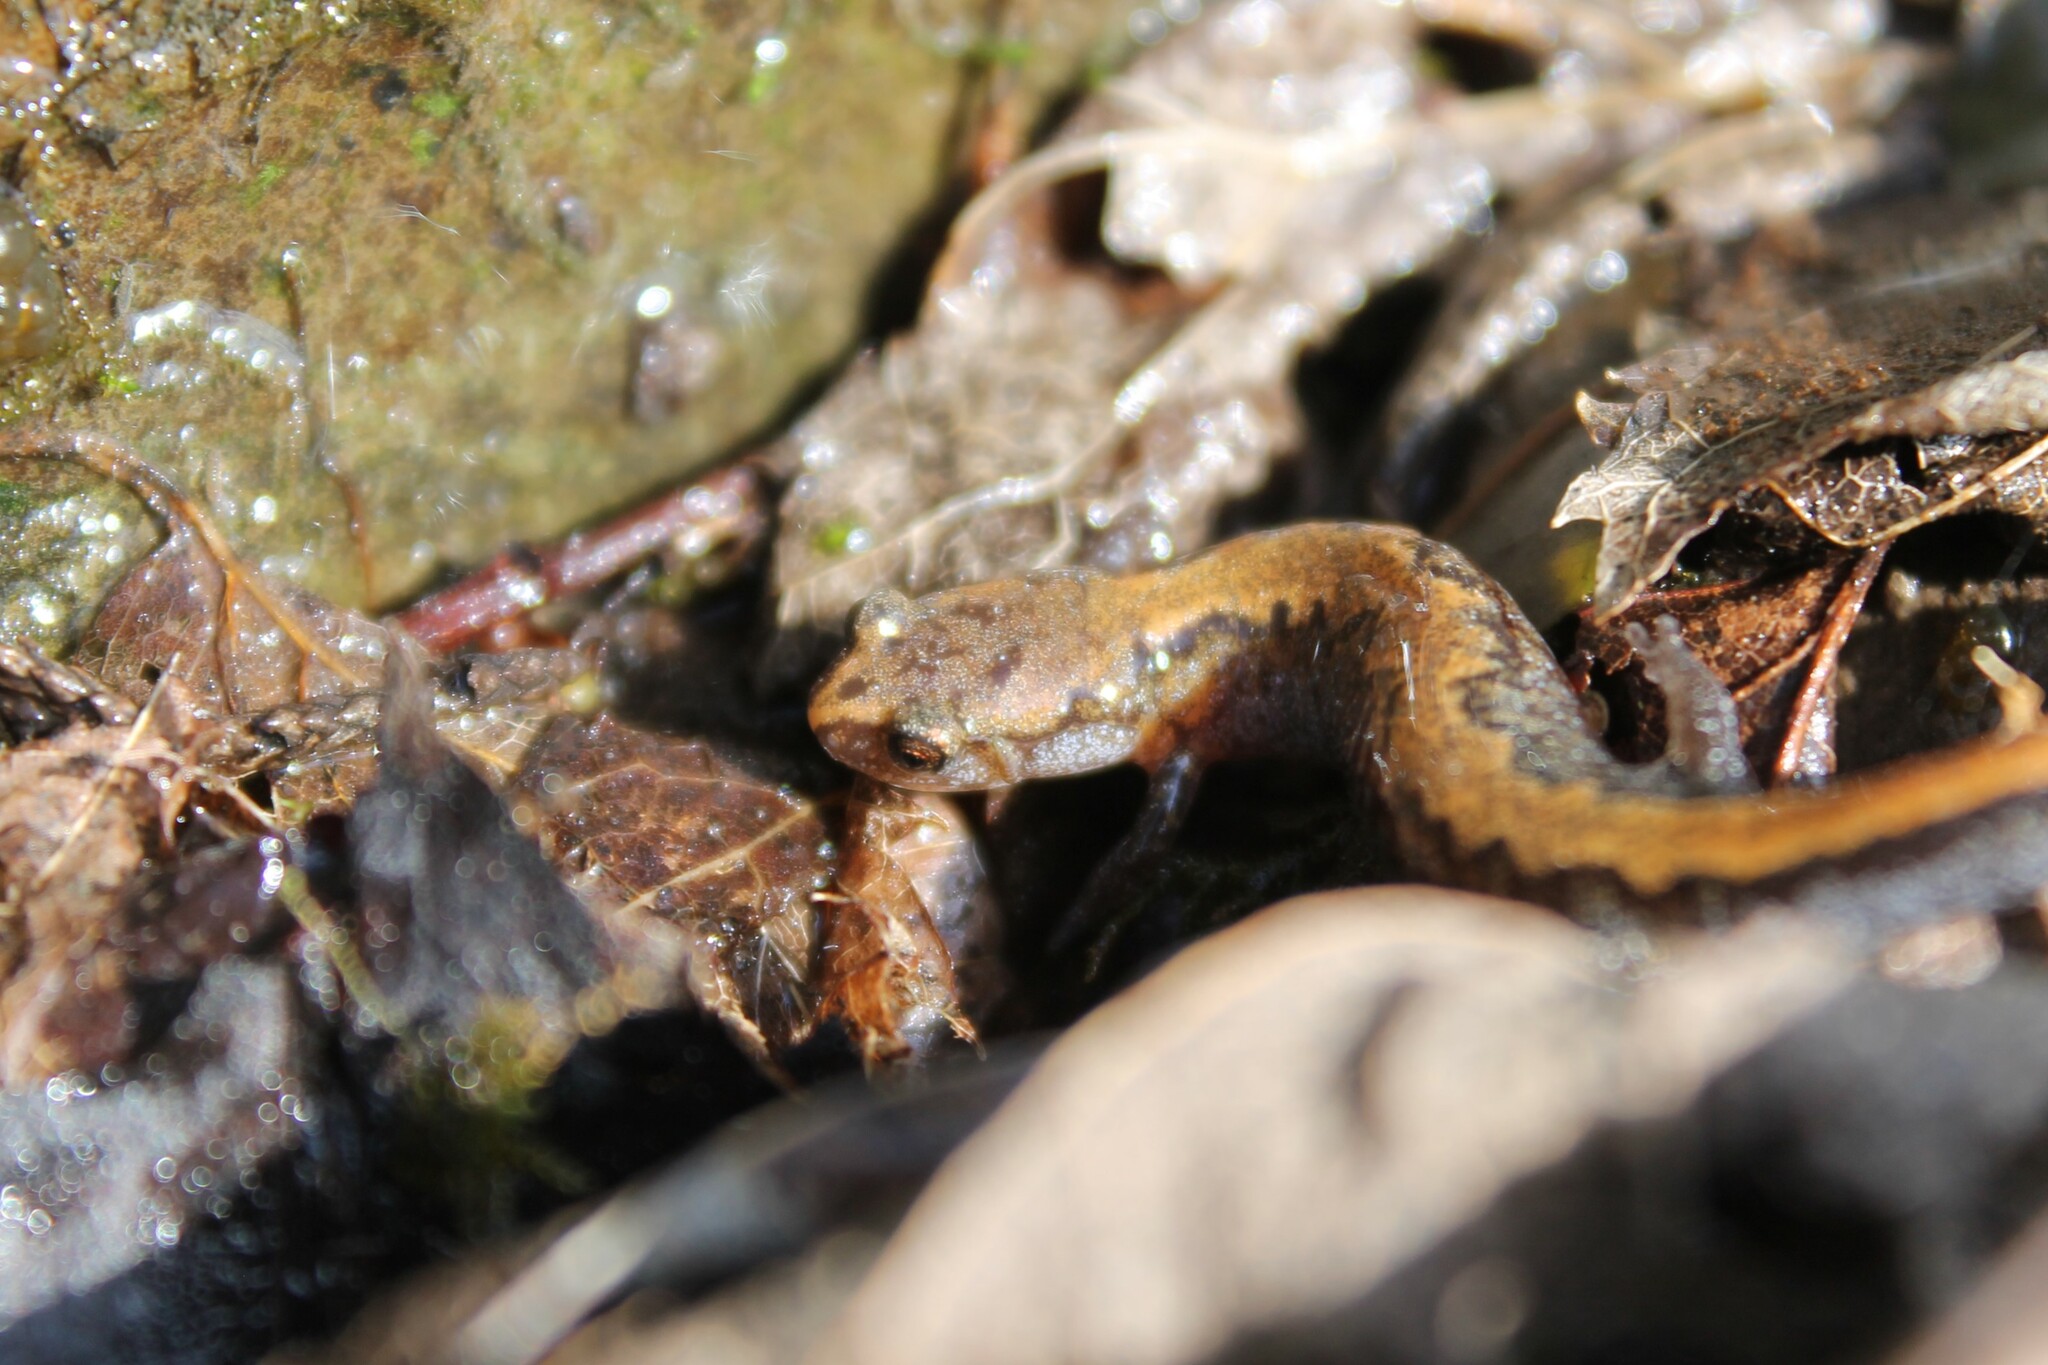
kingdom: Animalia
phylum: Chordata
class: Amphibia
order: Caudata
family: Plethodontidae
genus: Plethodon
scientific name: Plethodon dorsalis
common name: Northern zigzag salamander
